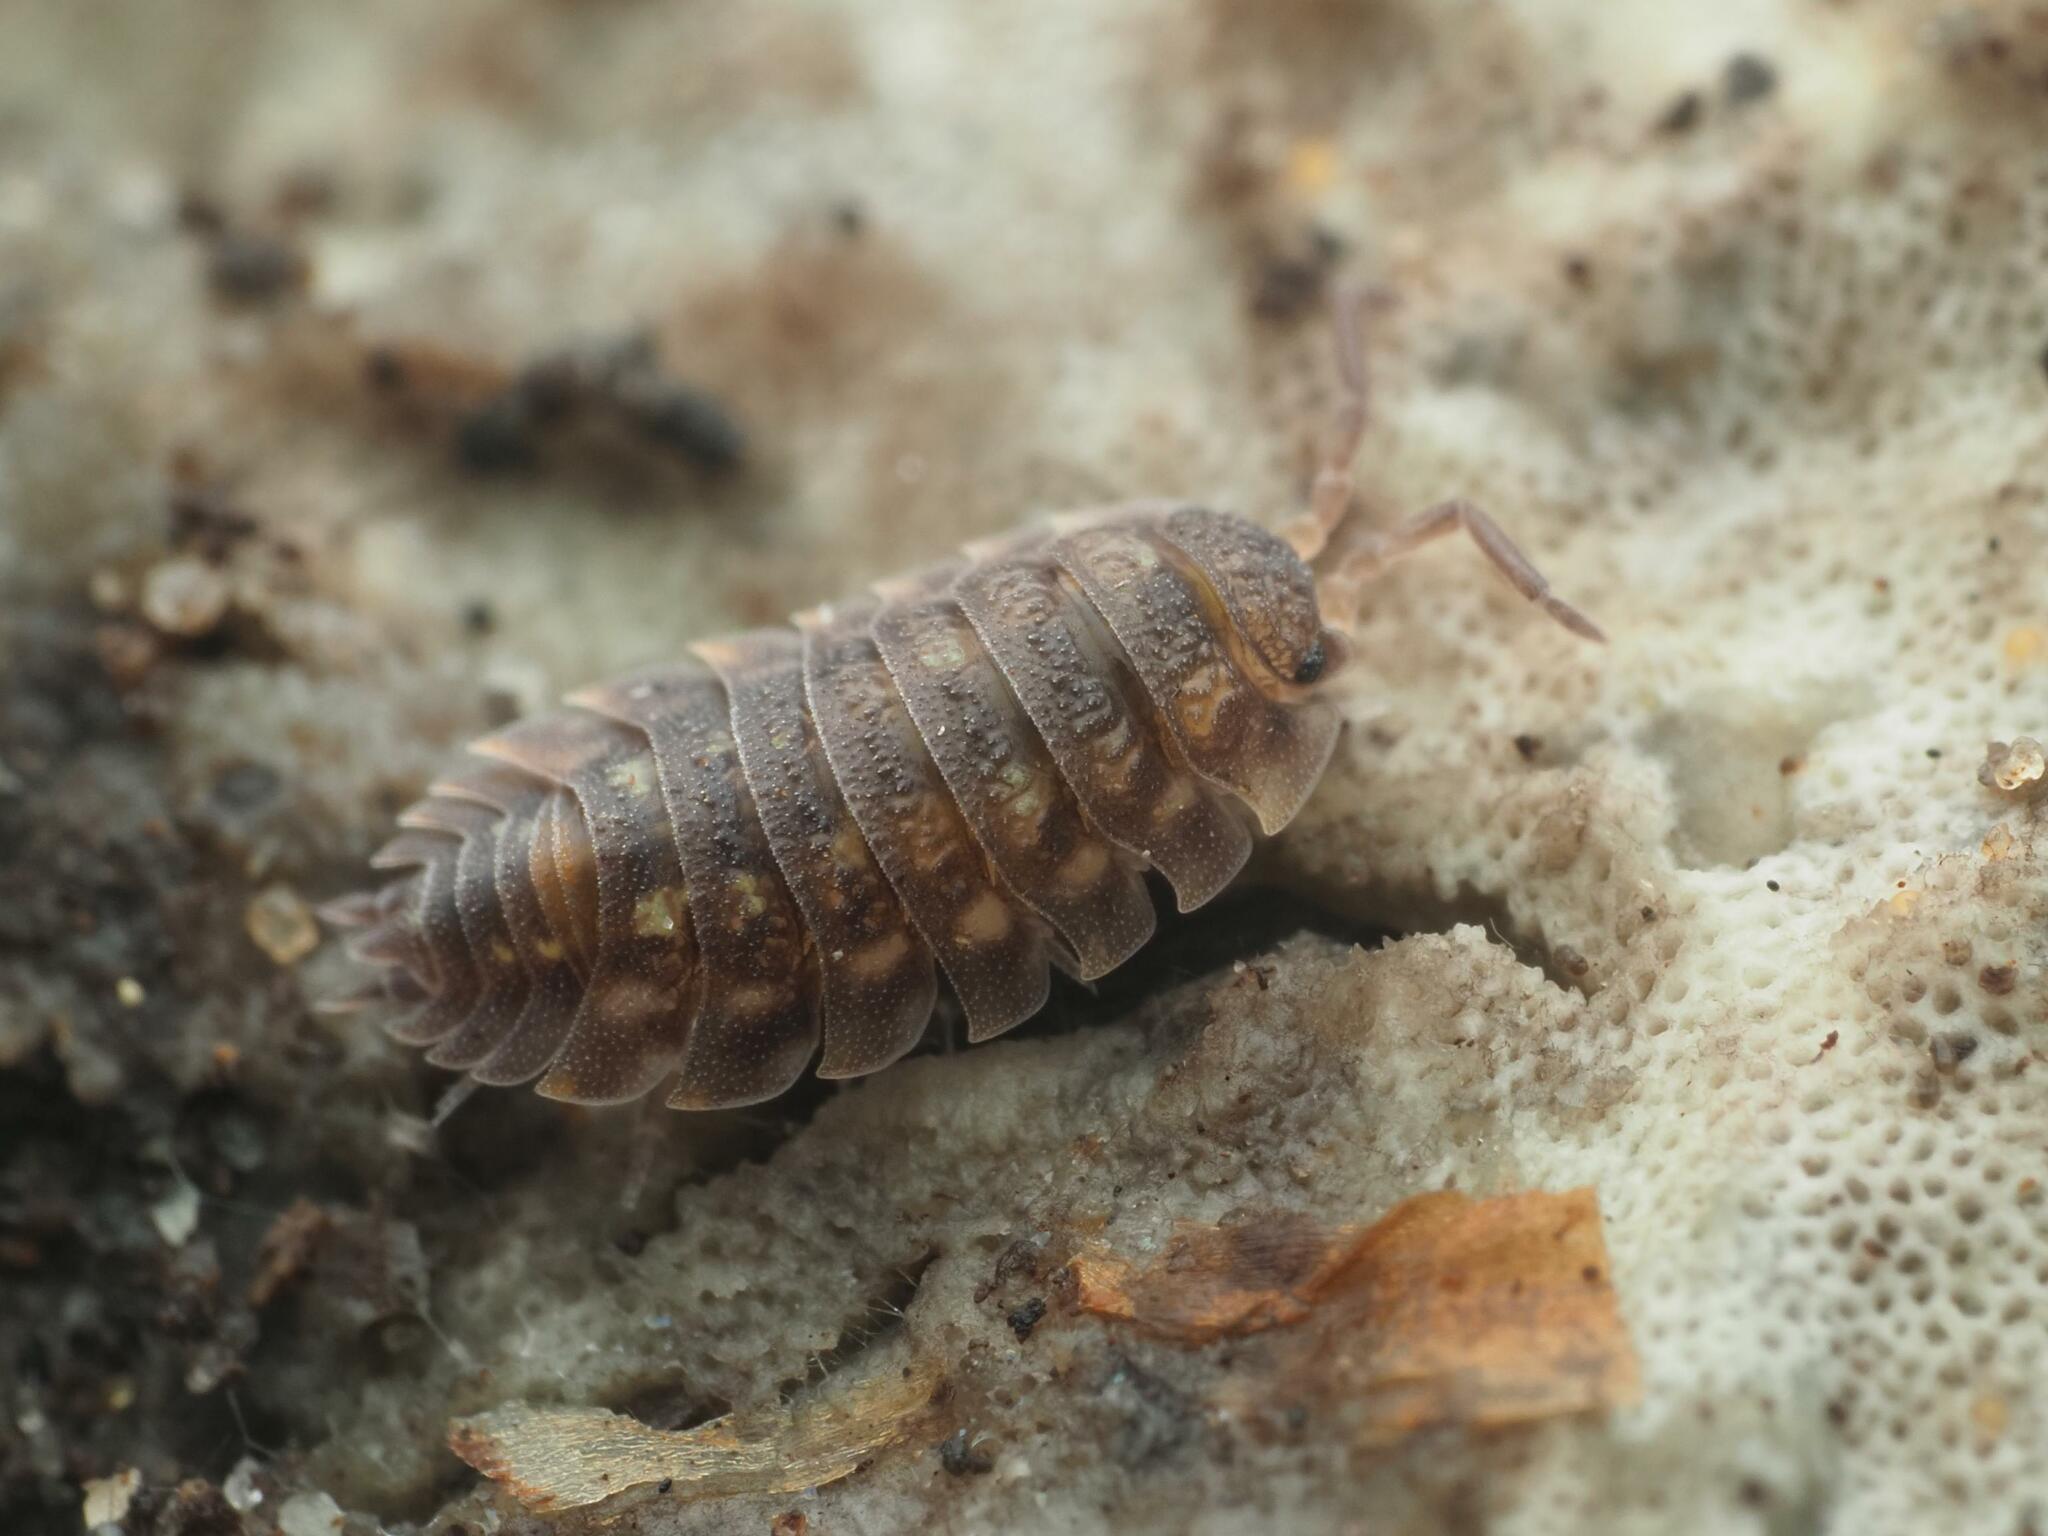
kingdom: Animalia
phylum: Arthropoda
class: Malacostraca
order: Isopoda
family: Oniscidae
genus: Oniscus
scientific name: Oniscus asellus
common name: Common shiny woodlouse
